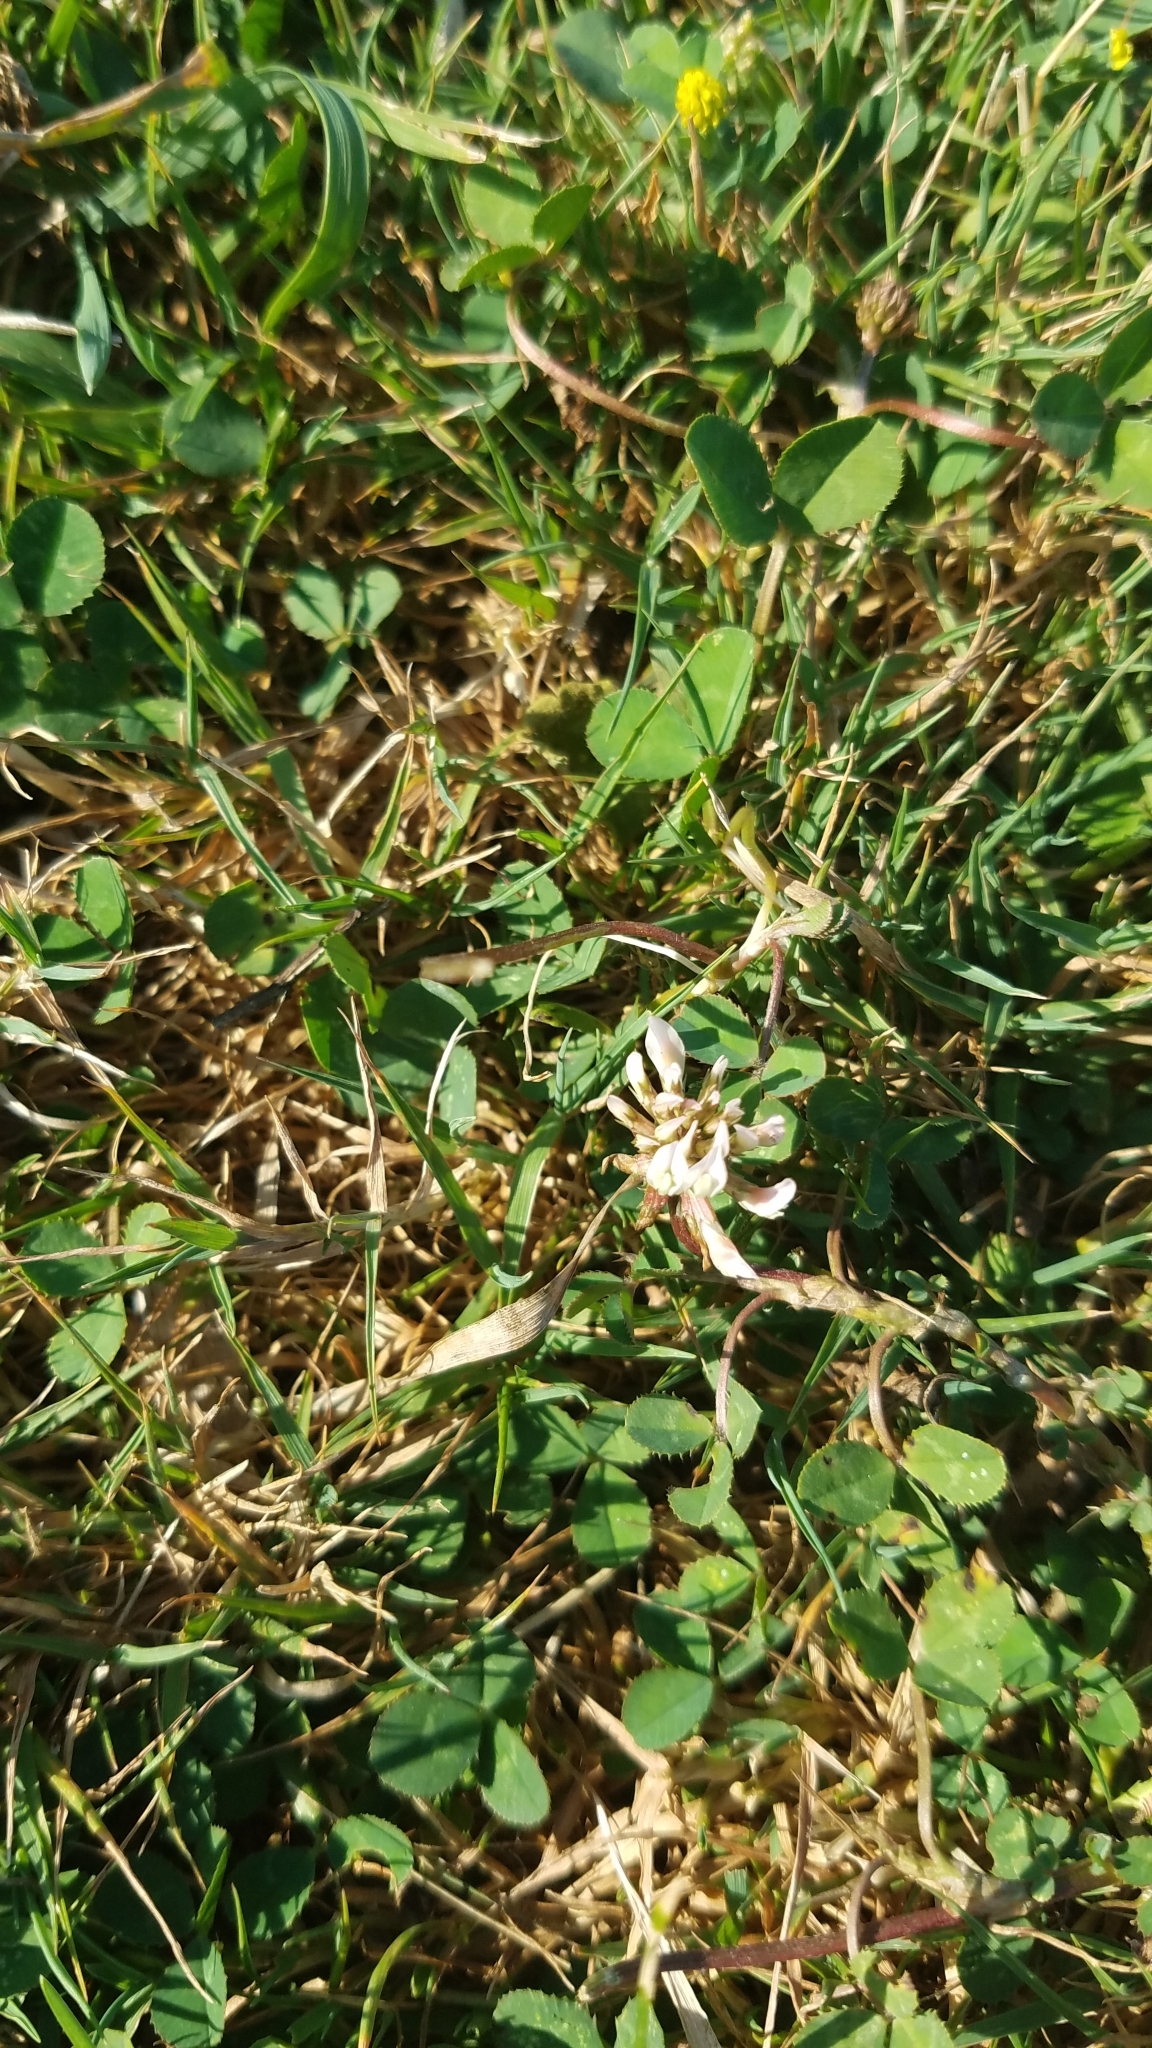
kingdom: Plantae
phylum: Tracheophyta
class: Magnoliopsida
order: Fabales
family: Fabaceae
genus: Trifolium
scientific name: Trifolium repens
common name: White clover
